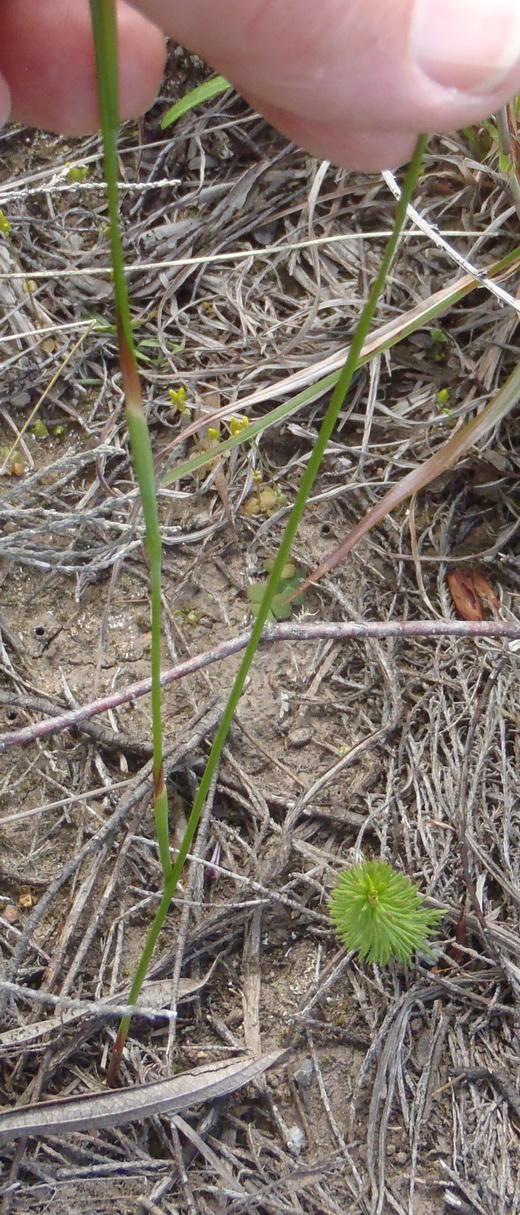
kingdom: Plantae
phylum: Tracheophyta
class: Liliopsida
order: Asparagales
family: Iridaceae
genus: Moraea
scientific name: Moraea algoensis
